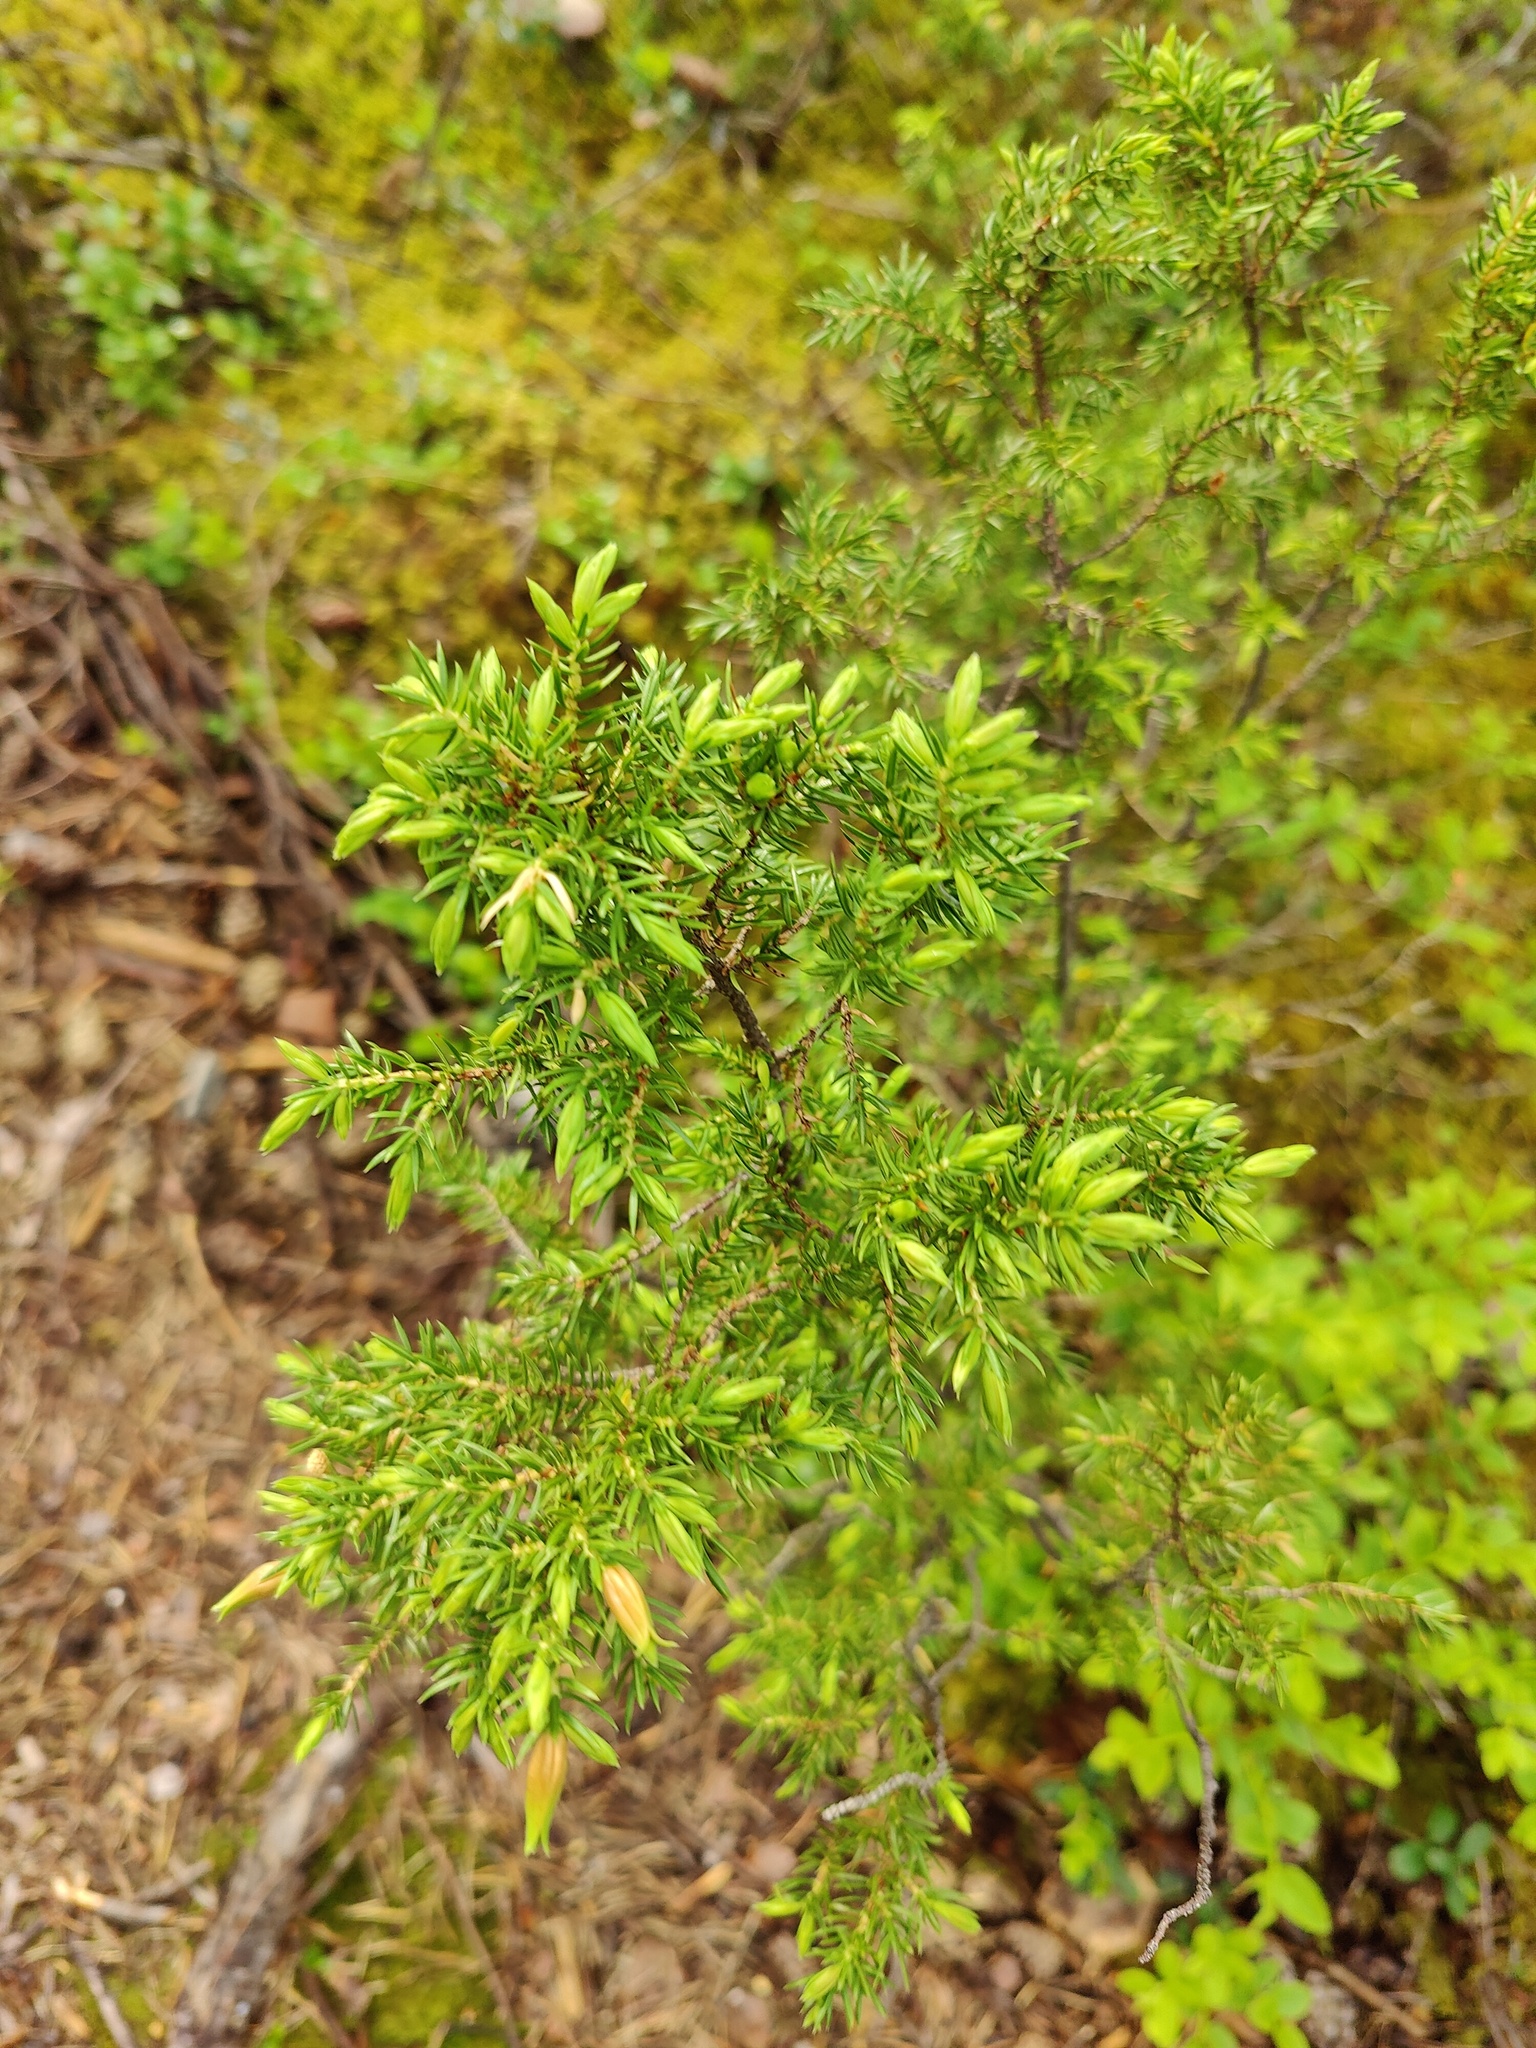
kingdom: Plantae
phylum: Tracheophyta
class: Pinopsida
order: Pinales
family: Cupressaceae
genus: Juniperus
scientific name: Juniperus communis
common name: Common juniper
